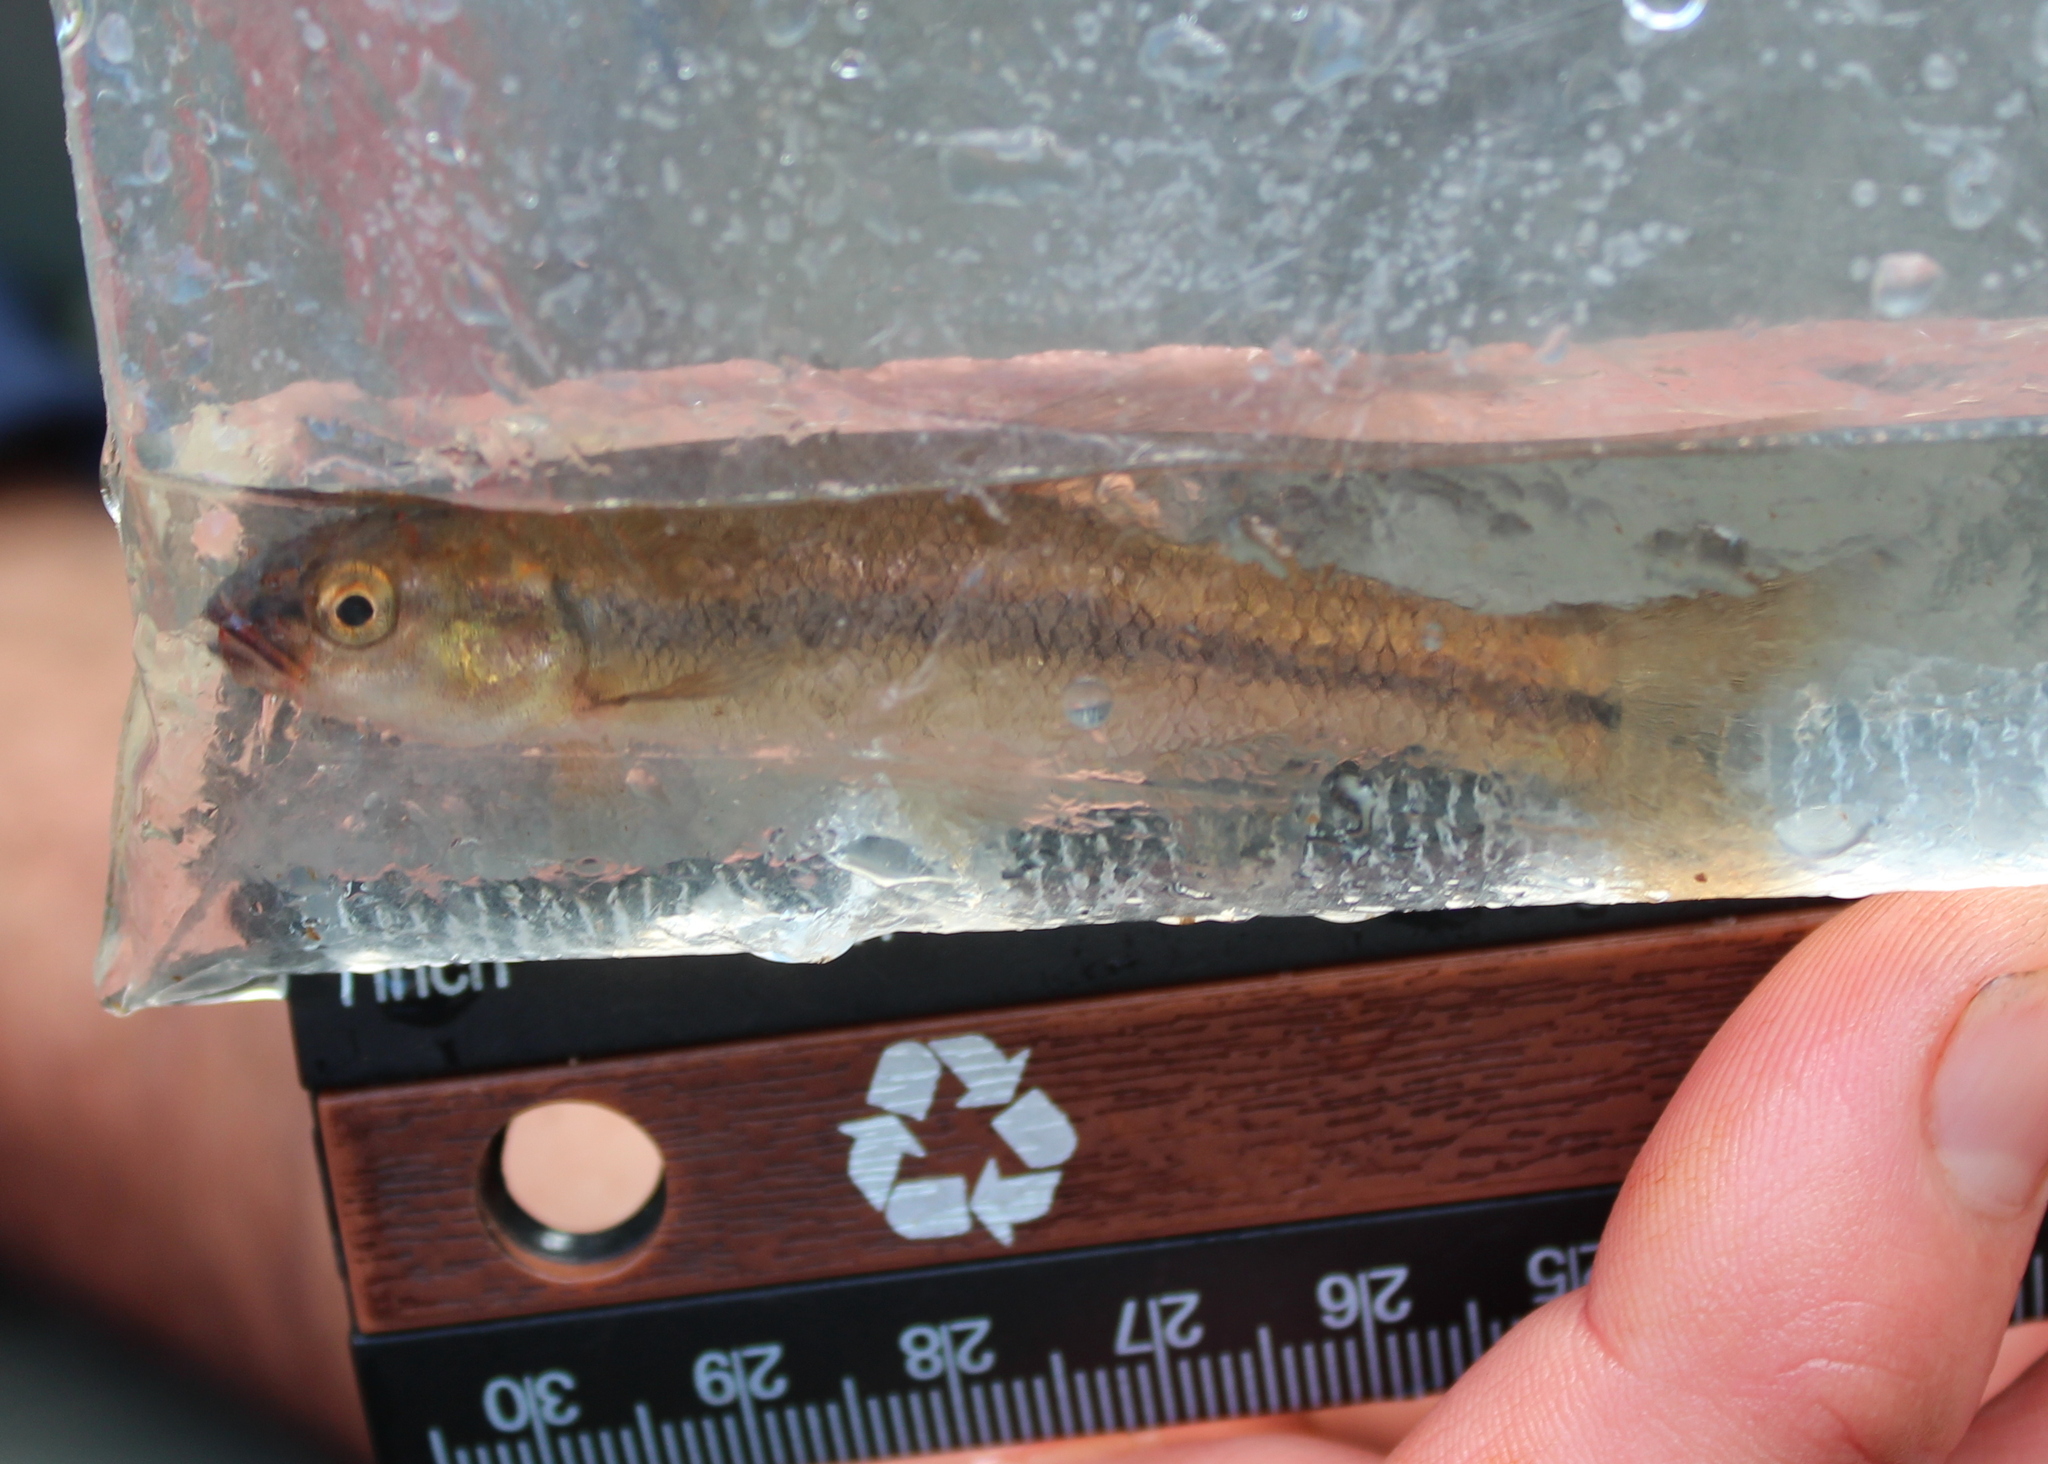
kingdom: Animalia
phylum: Chordata
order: Cypriniformes
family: Cyprinidae
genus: Semotilus
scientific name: Semotilus atromaculatus
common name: Creek chub
